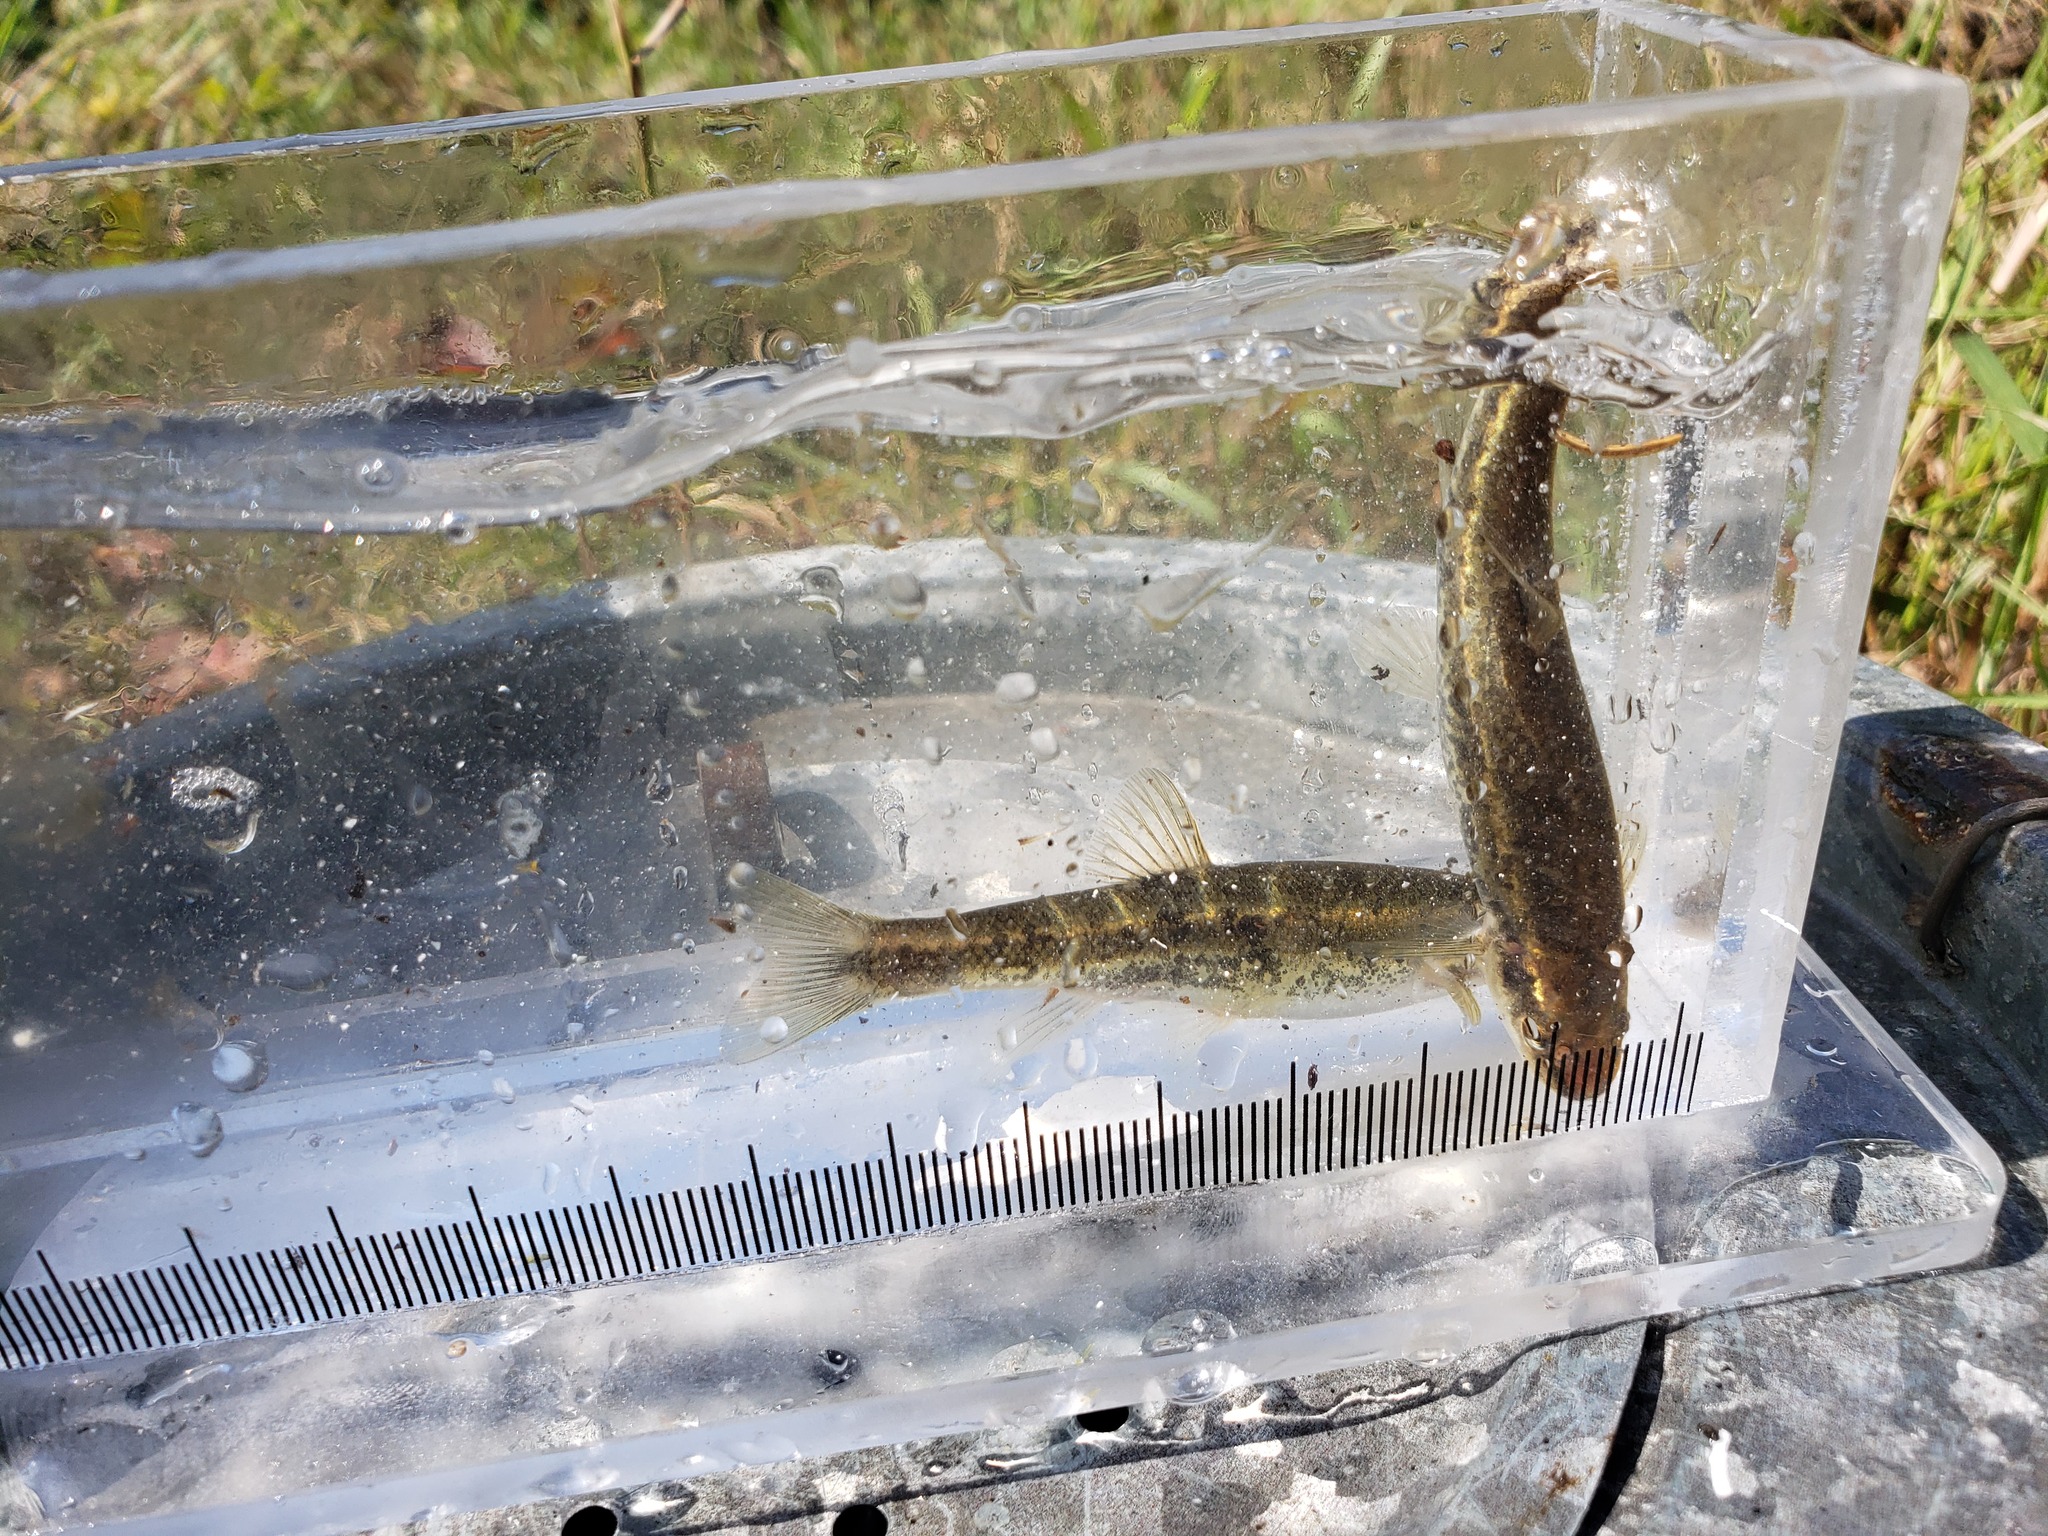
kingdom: Animalia
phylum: Chordata
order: Cypriniformes
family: Cyprinidae
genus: Rhinichthys
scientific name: Rhinichthys obtusus
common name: Western blacknose dace
